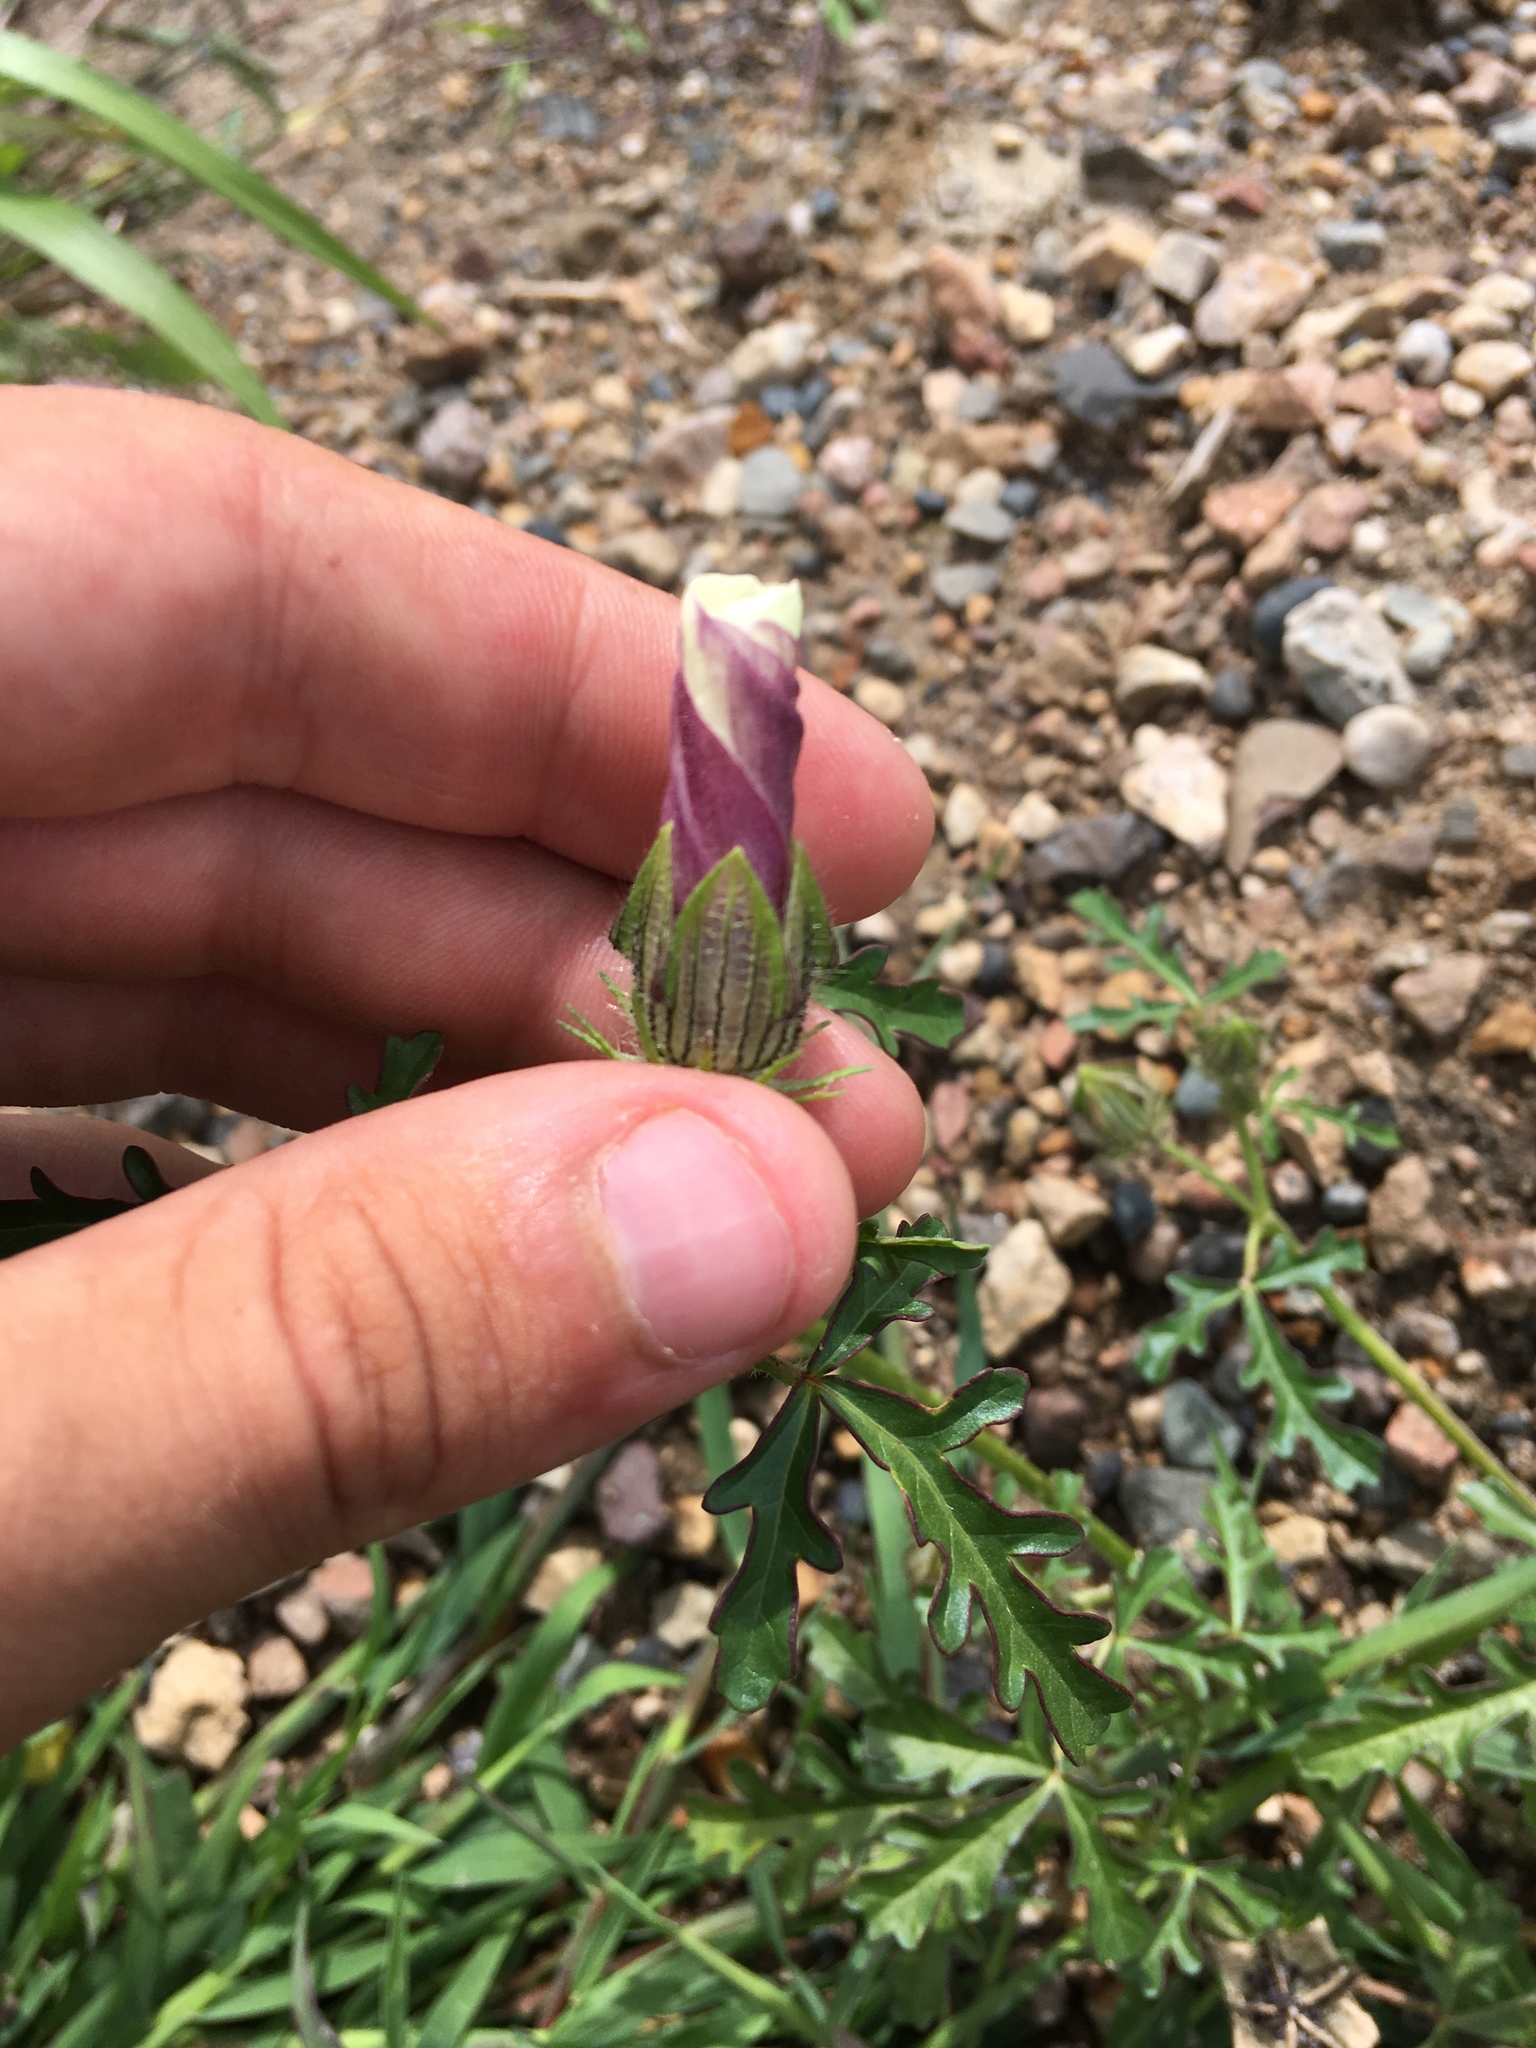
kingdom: Plantae
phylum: Tracheophyta
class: Magnoliopsida
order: Malvales
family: Malvaceae
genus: Hibiscus
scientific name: Hibiscus trionum
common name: Bladder ketmia
